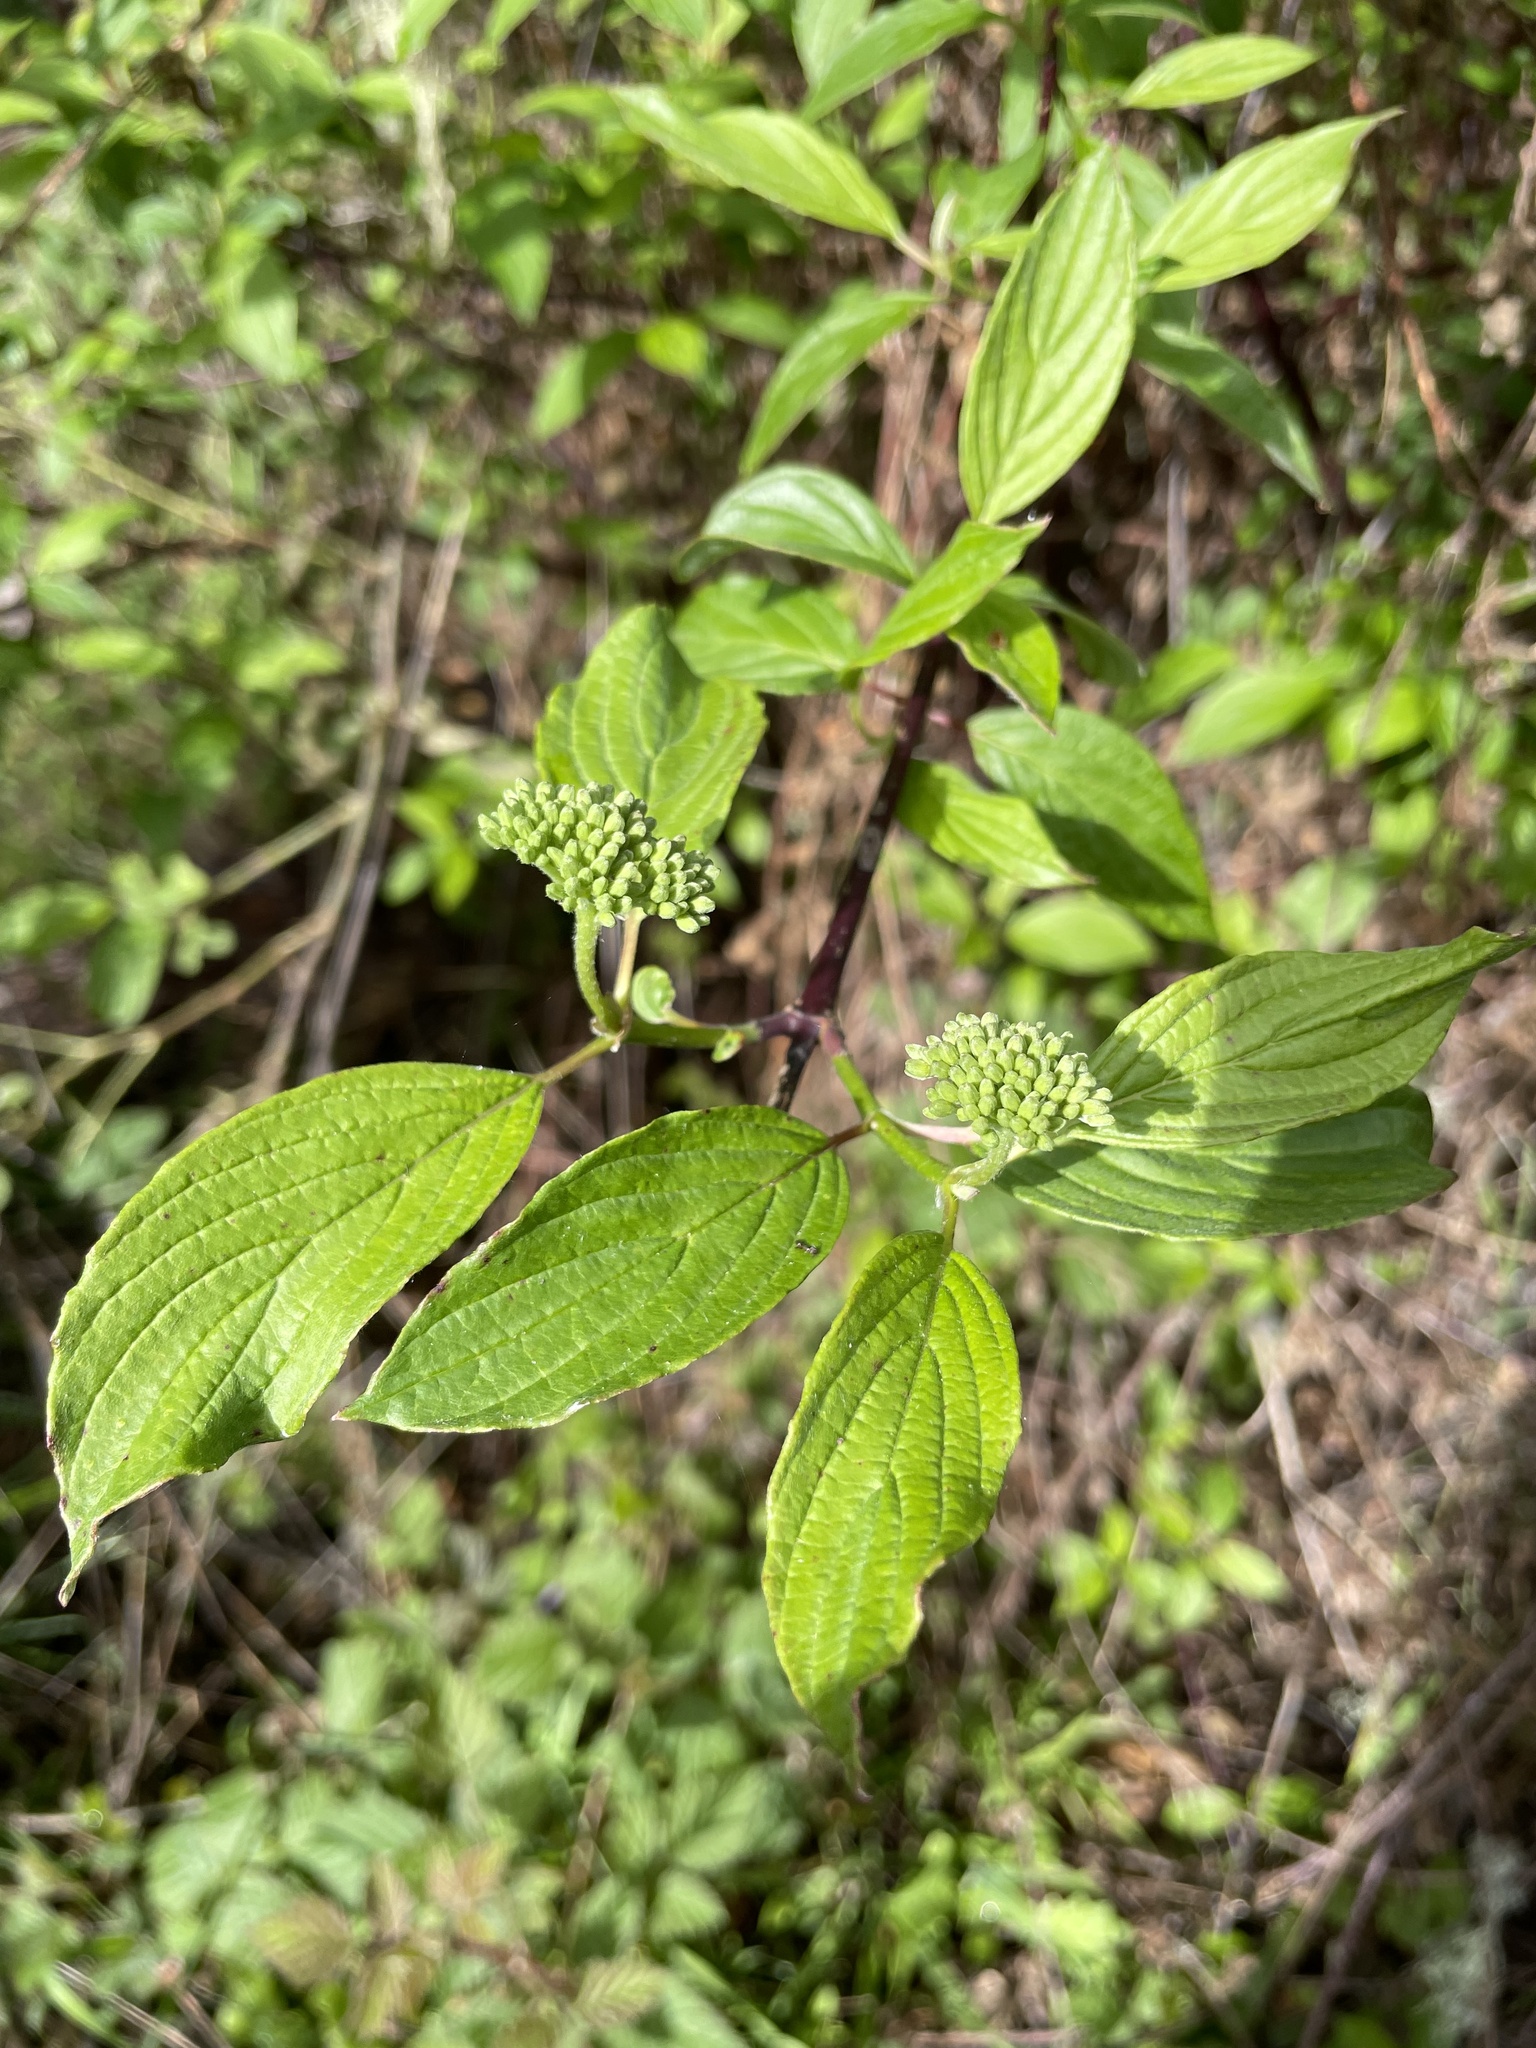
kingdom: Plantae
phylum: Tracheophyta
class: Magnoliopsida
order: Cornales
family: Cornaceae
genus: Cornus
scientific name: Cornus sericea
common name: Red-osier dogwood
